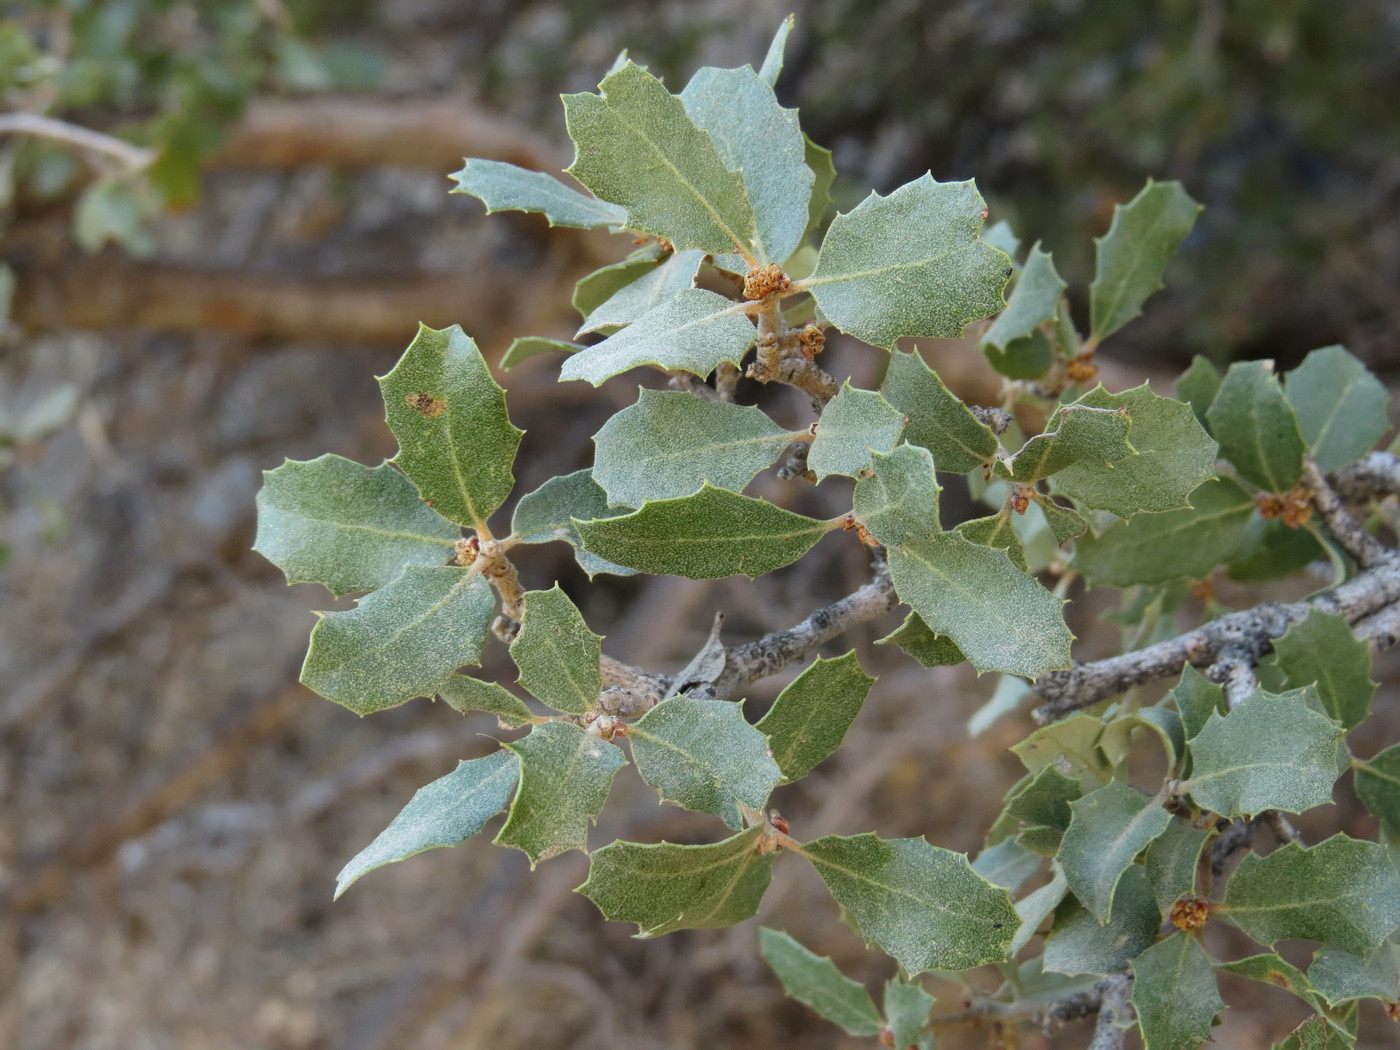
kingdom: Plantae
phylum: Tracheophyta
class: Magnoliopsida
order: Fagales
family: Fagaceae
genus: Quercus
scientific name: Quercus cornelius-mulleri
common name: Muller oak
